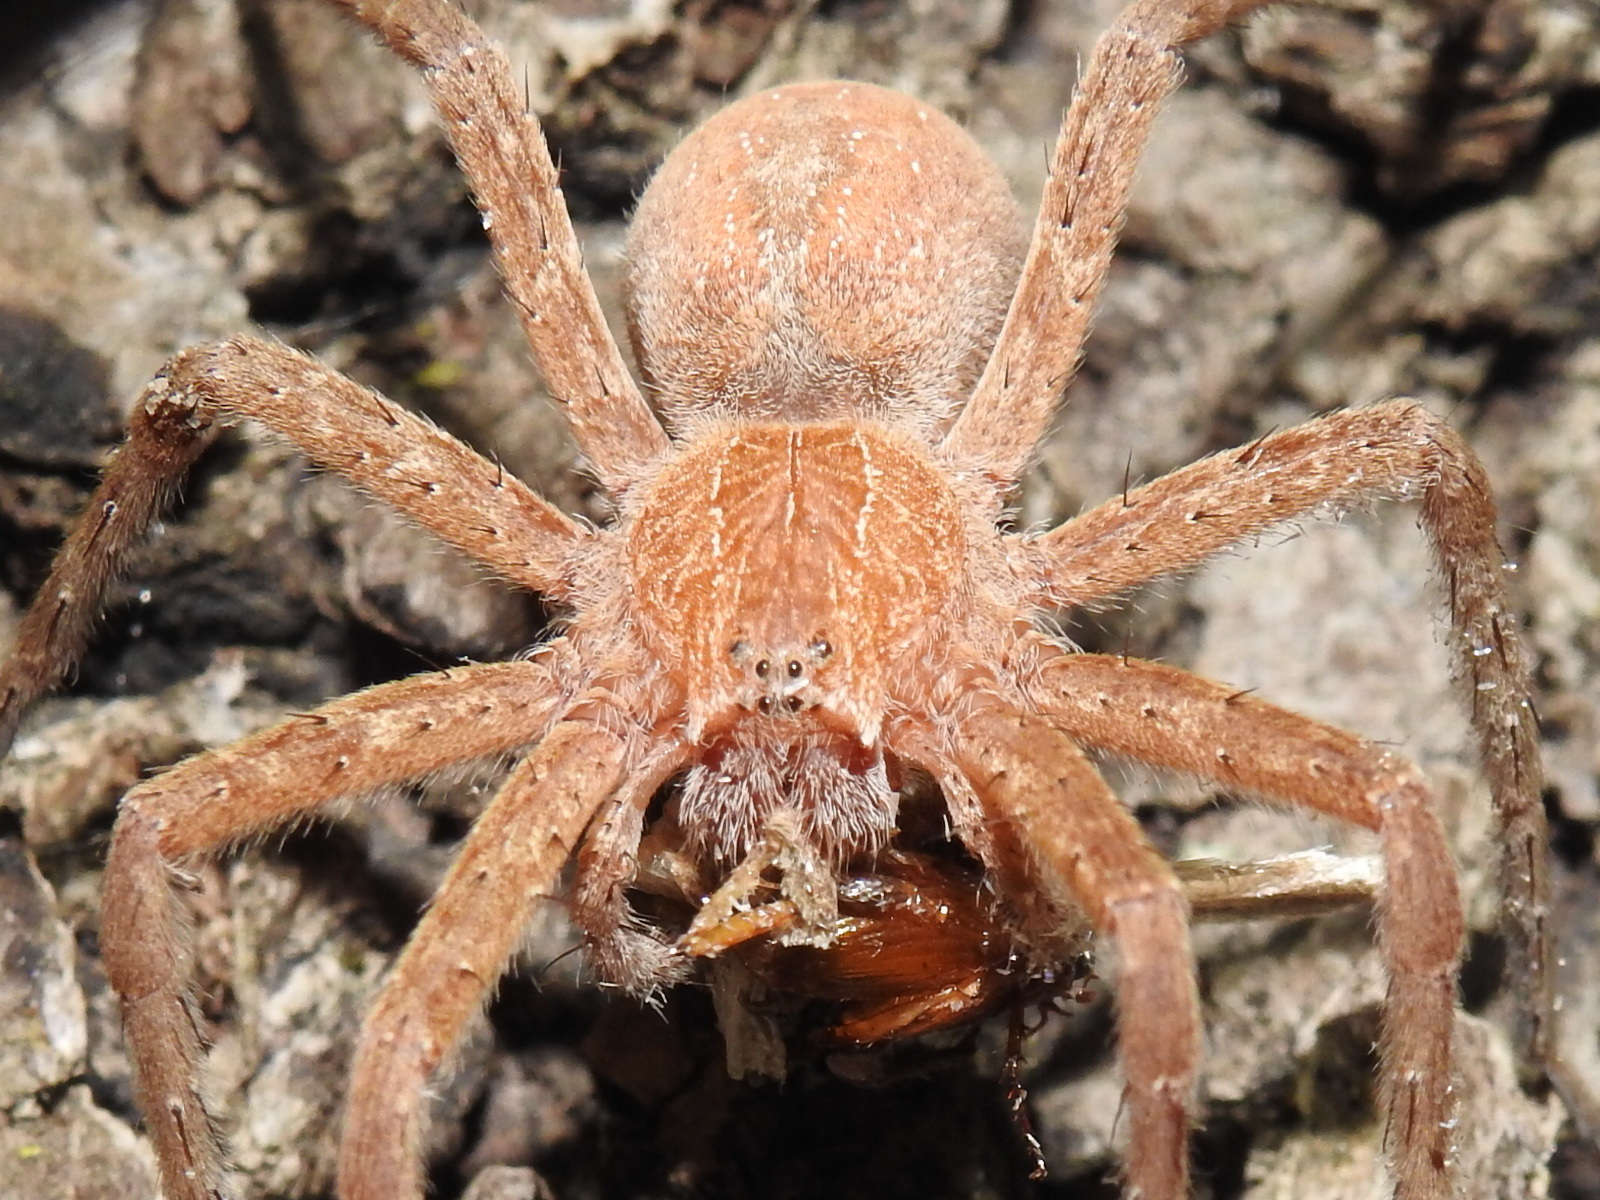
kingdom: Animalia
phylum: Arthropoda
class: Arachnida
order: Araneae
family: Pisauridae
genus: Pisaurina
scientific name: Pisaurina mira
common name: American nursery web spider
